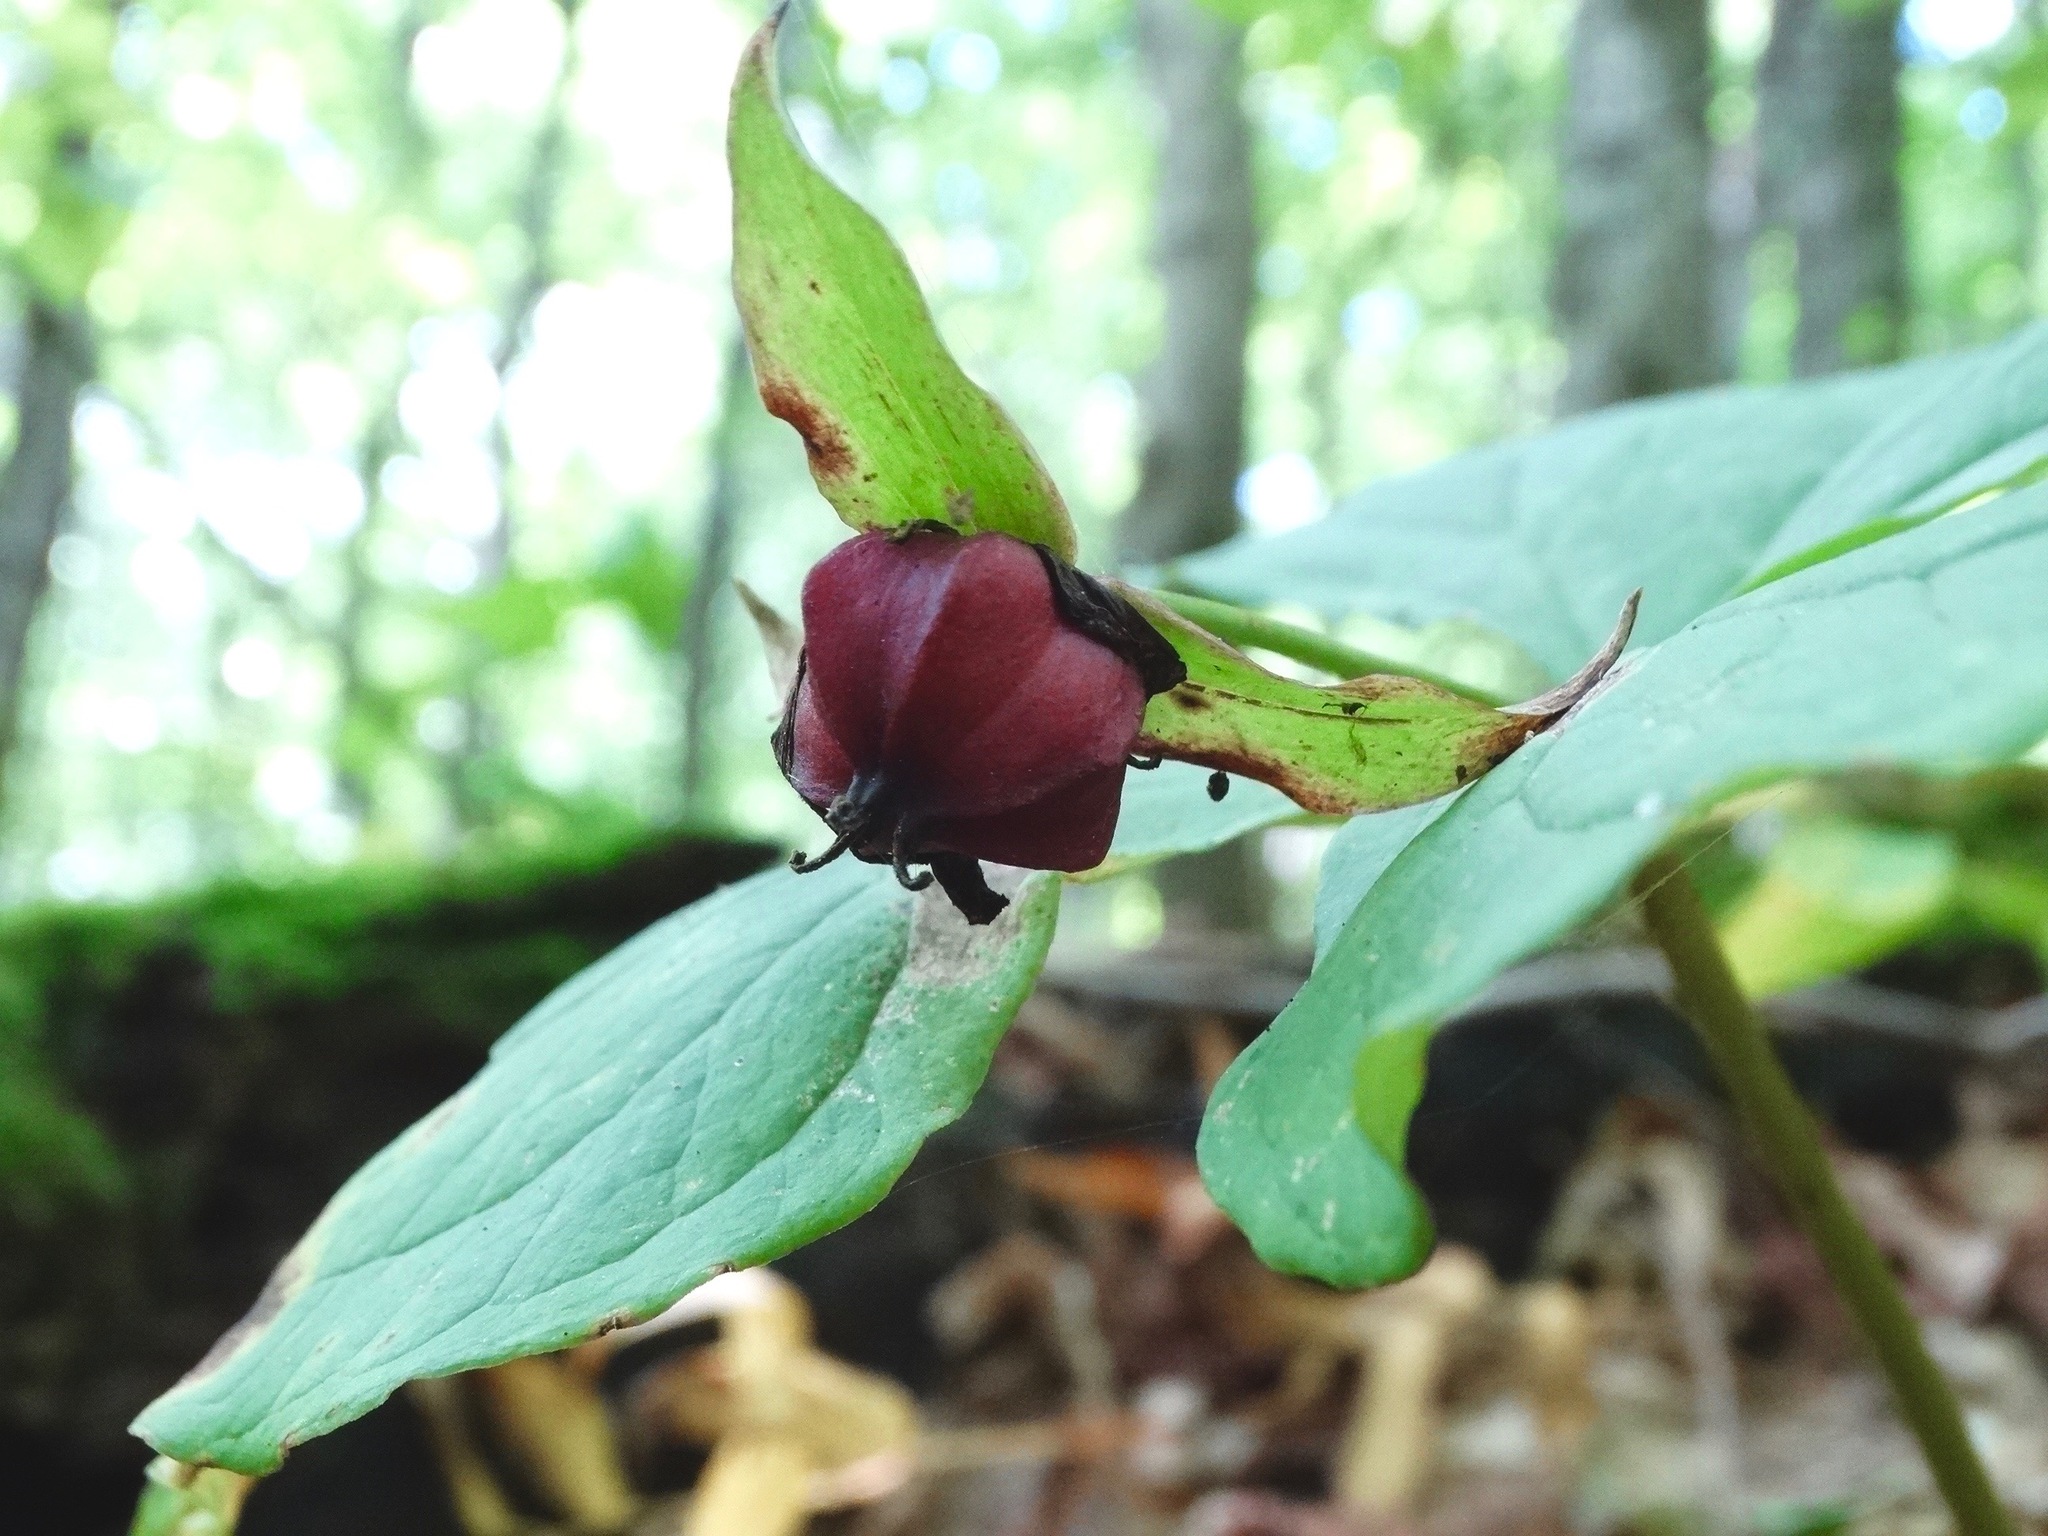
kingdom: Plantae
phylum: Tracheophyta
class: Liliopsida
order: Liliales
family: Melanthiaceae
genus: Trillium
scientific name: Trillium erectum
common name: Purple trillium
